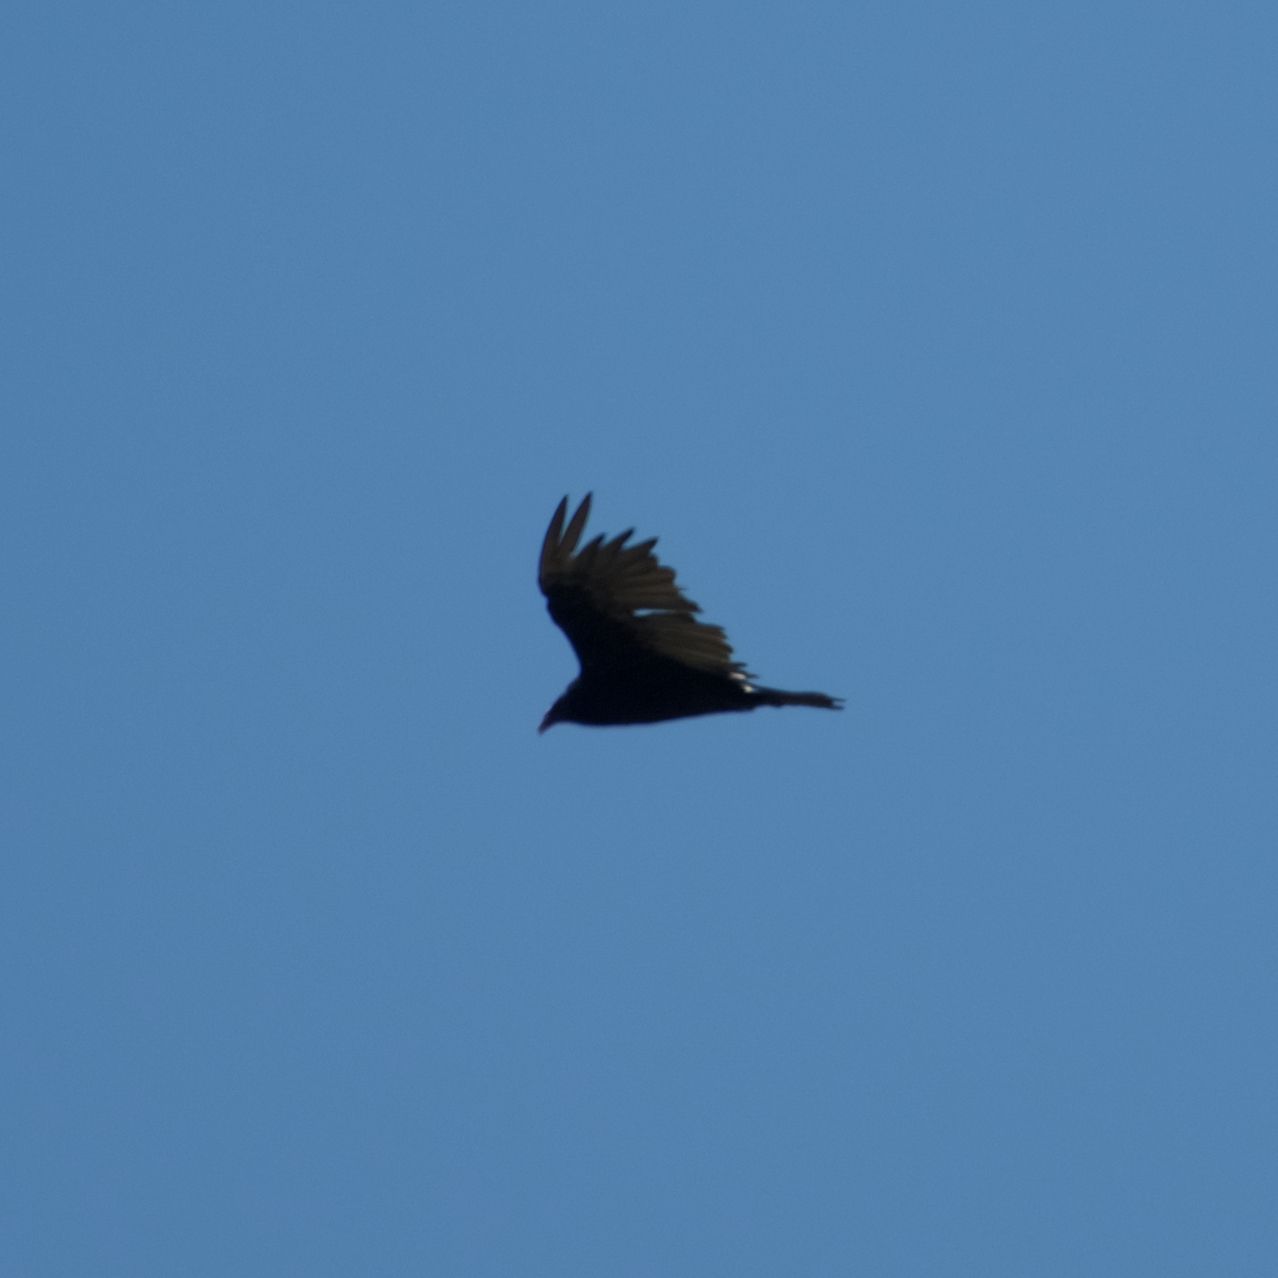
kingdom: Animalia
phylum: Chordata
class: Aves
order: Accipitriformes
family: Cathartidae
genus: Cathartes
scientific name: Cathartes aura
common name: Turkey vulture
